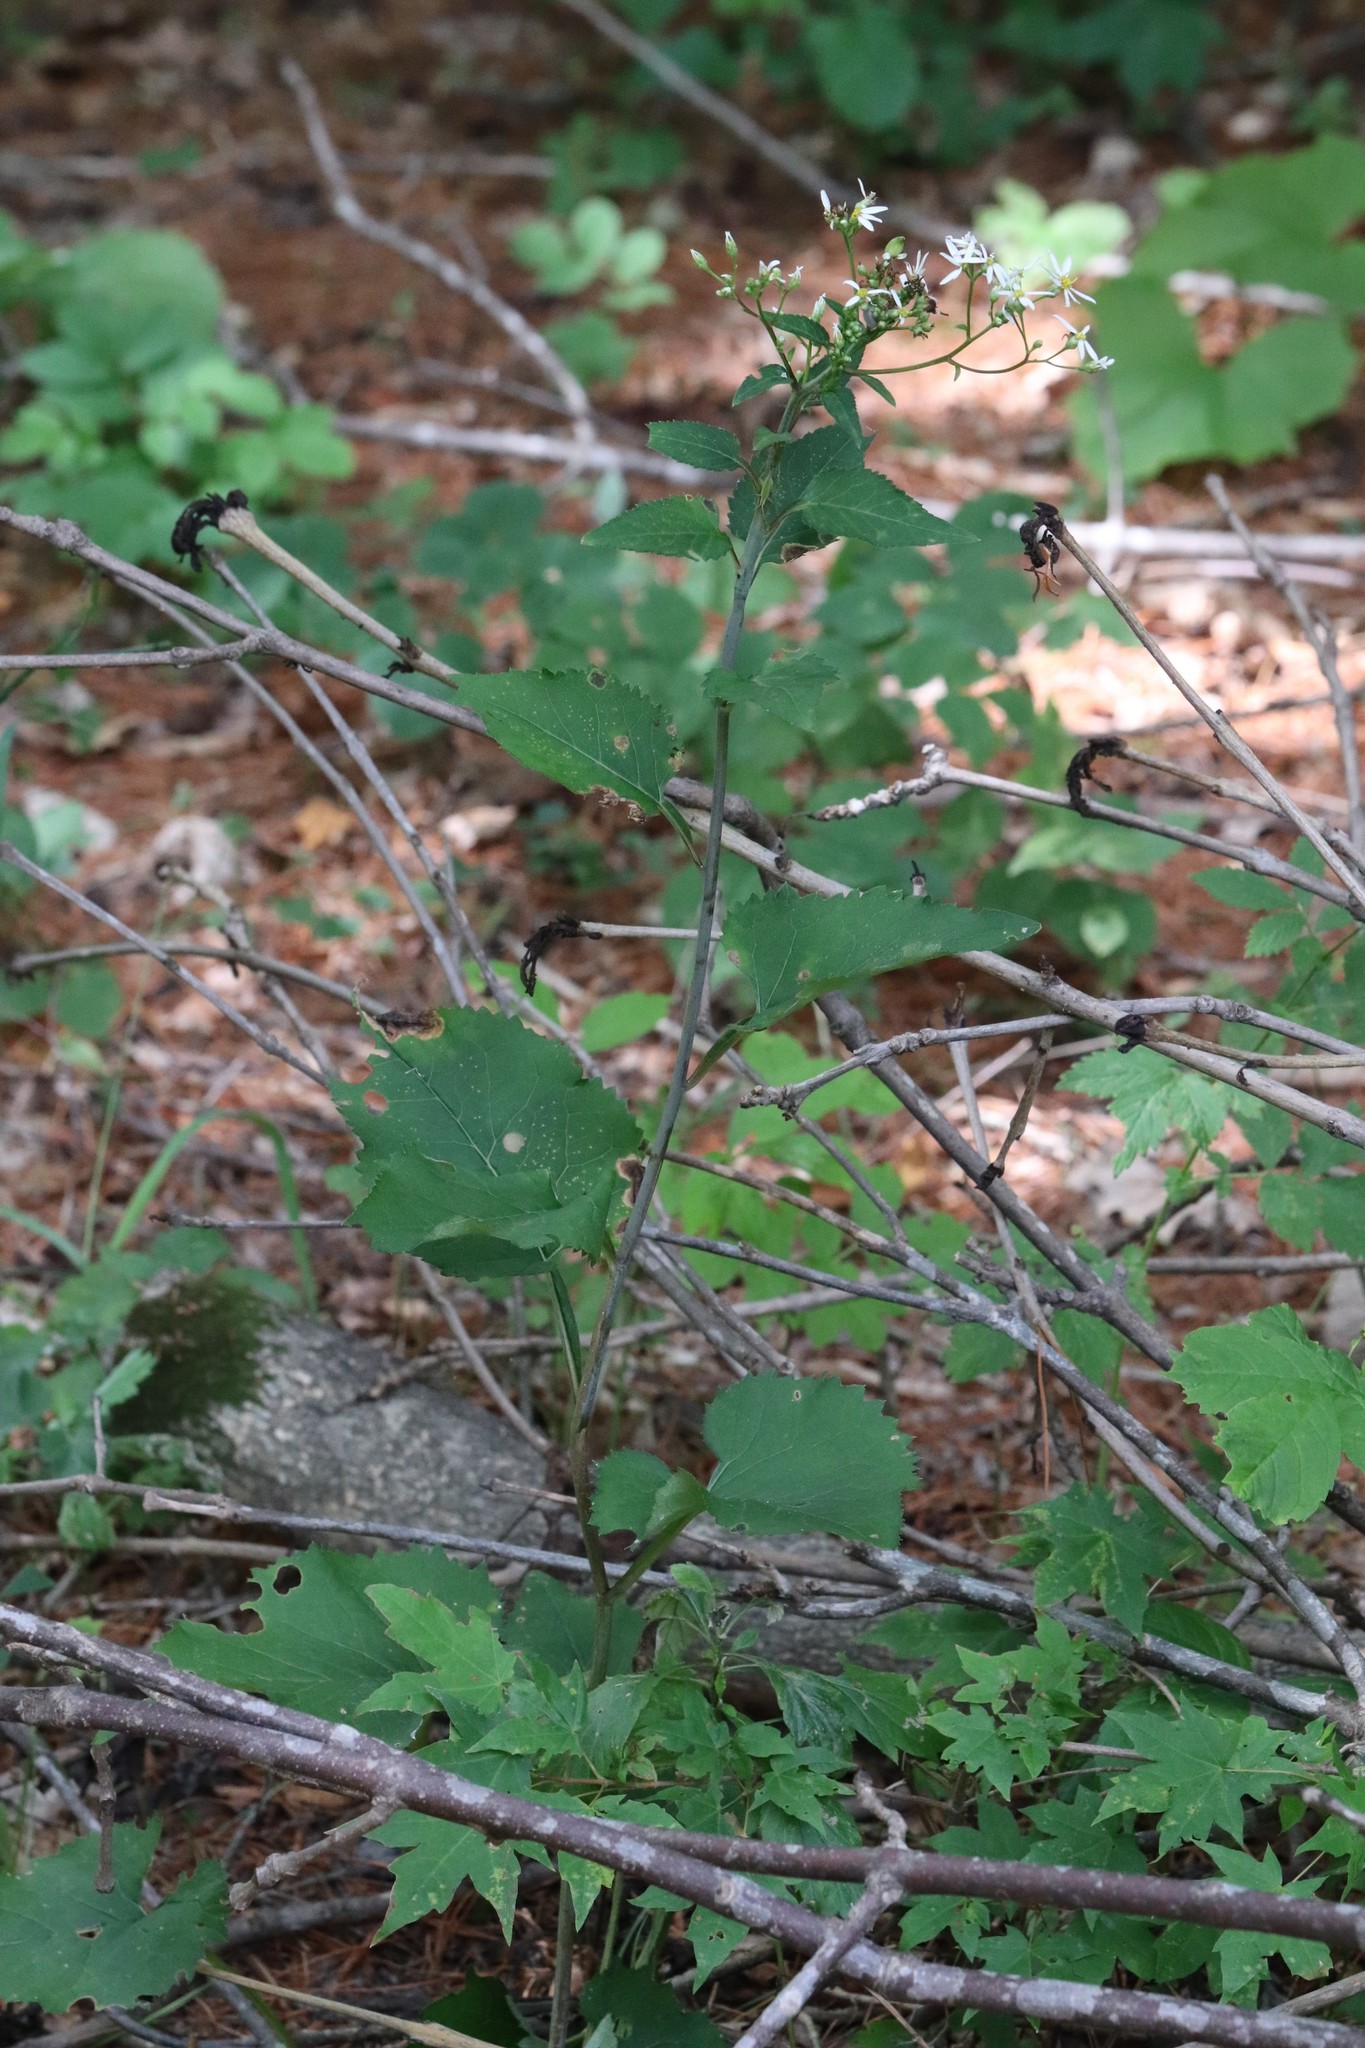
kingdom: Plantae
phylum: Tracheophyta
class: Magnoliopsida
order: Asterales
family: Asteraceae
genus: Aster
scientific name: Aster scaber
